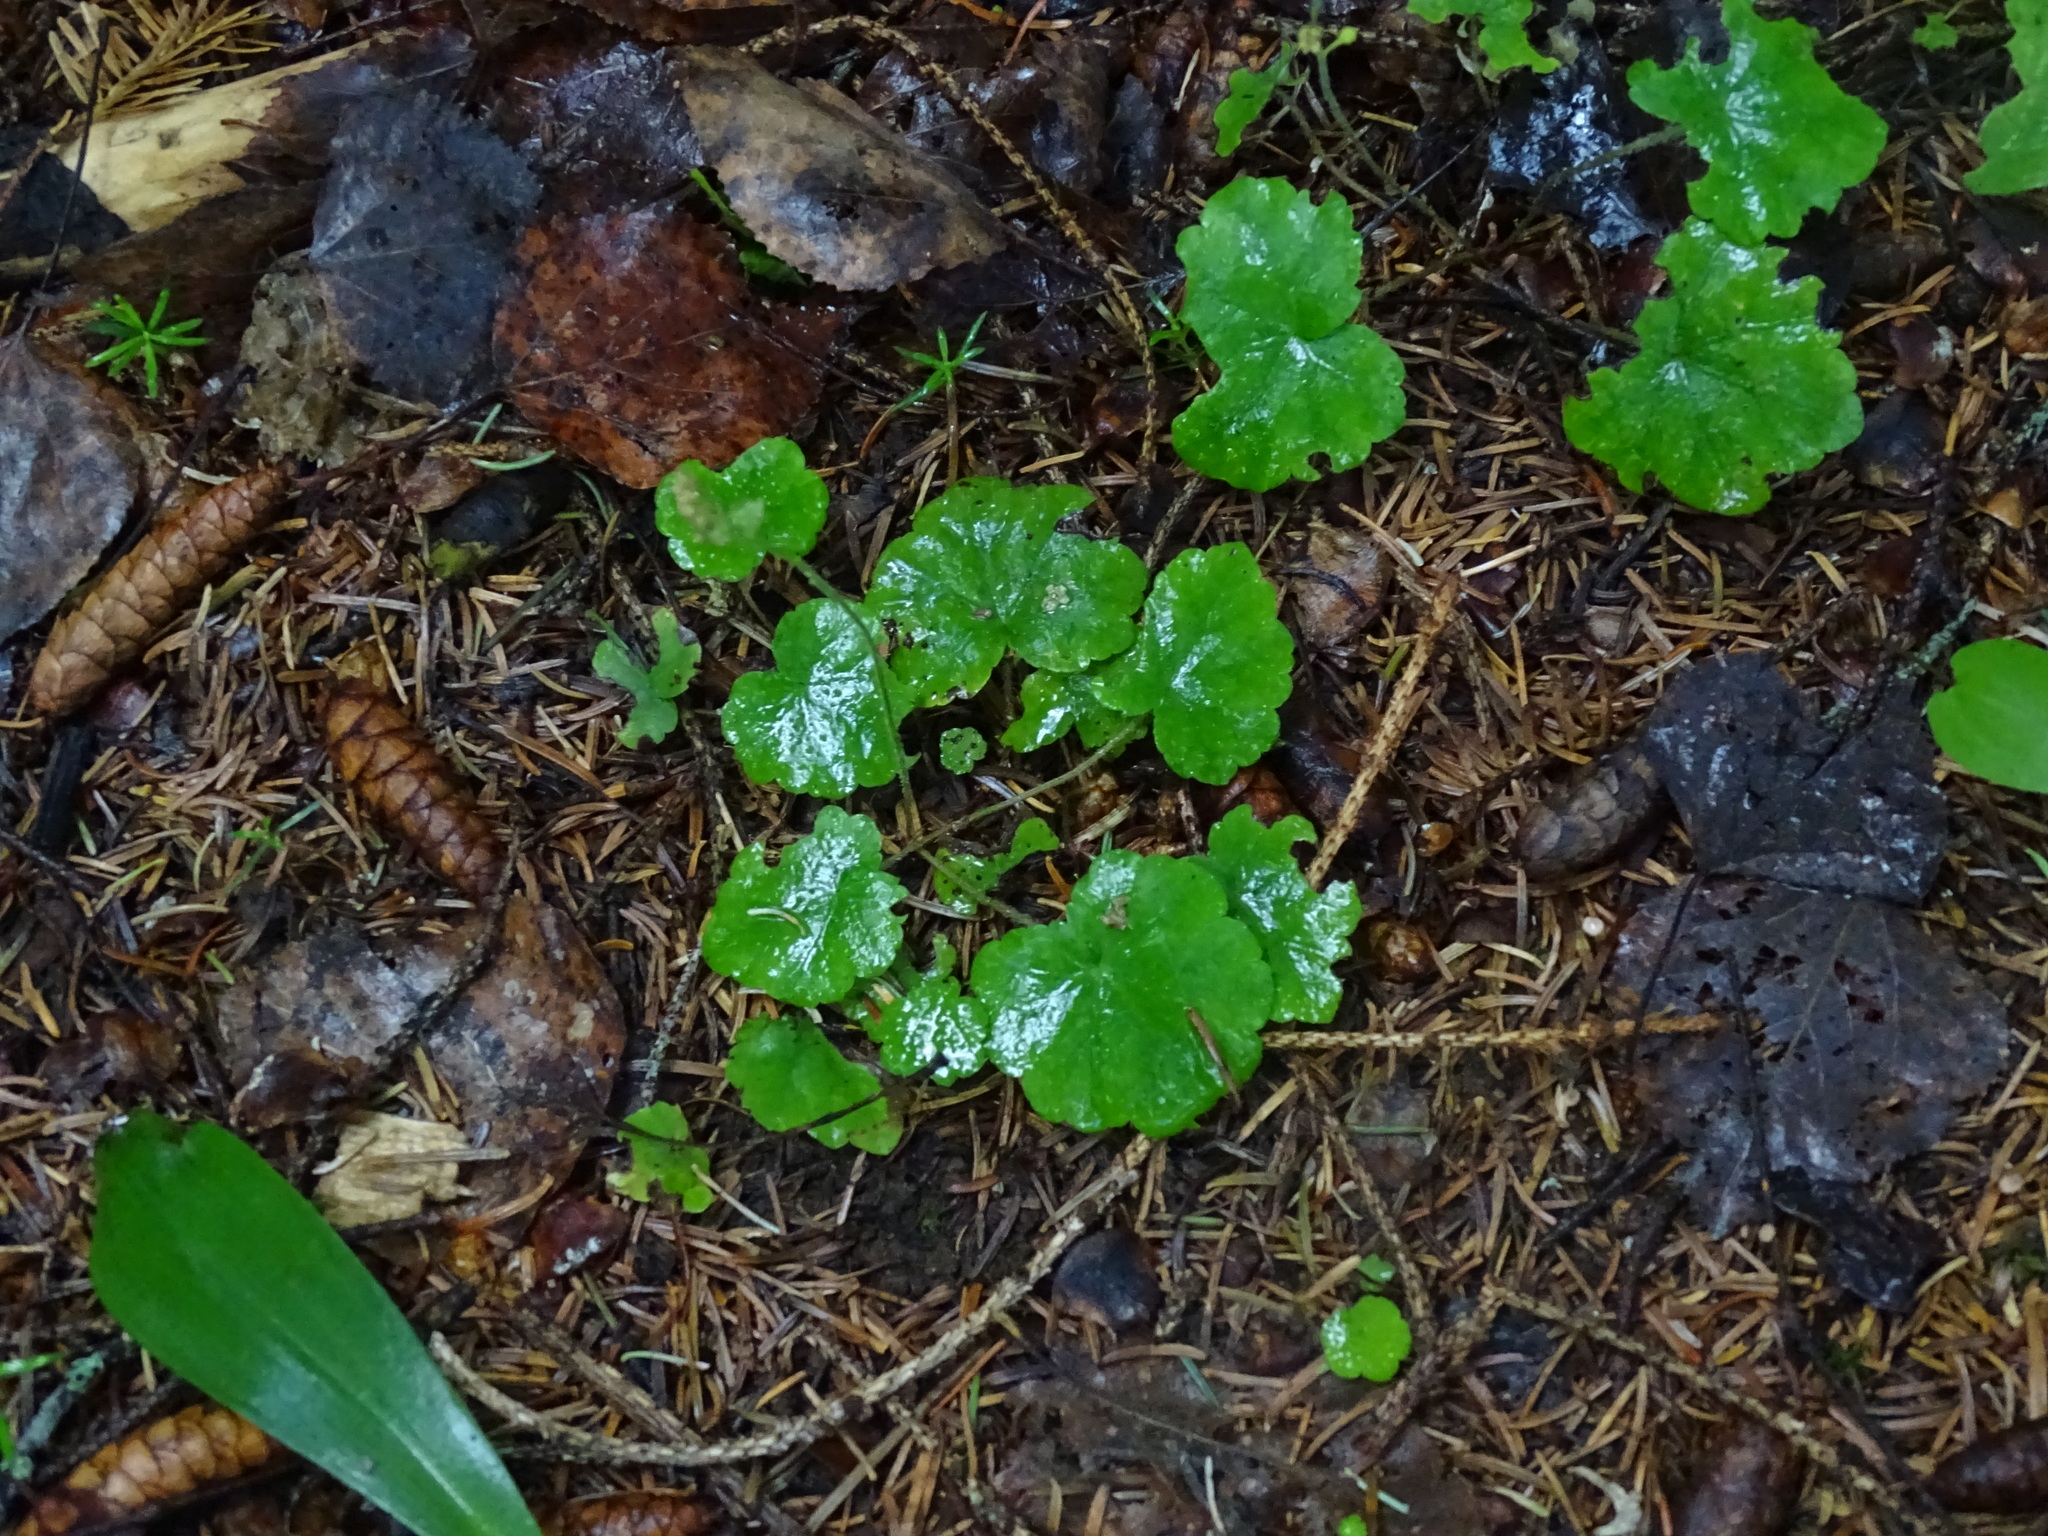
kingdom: Plantae
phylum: Tracheophyta
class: Magnoliopsida
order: Saxifragales
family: Saxifragaceae
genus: Mitella
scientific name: Mitella nuda
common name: Bare-stemmed bishop's-cap
